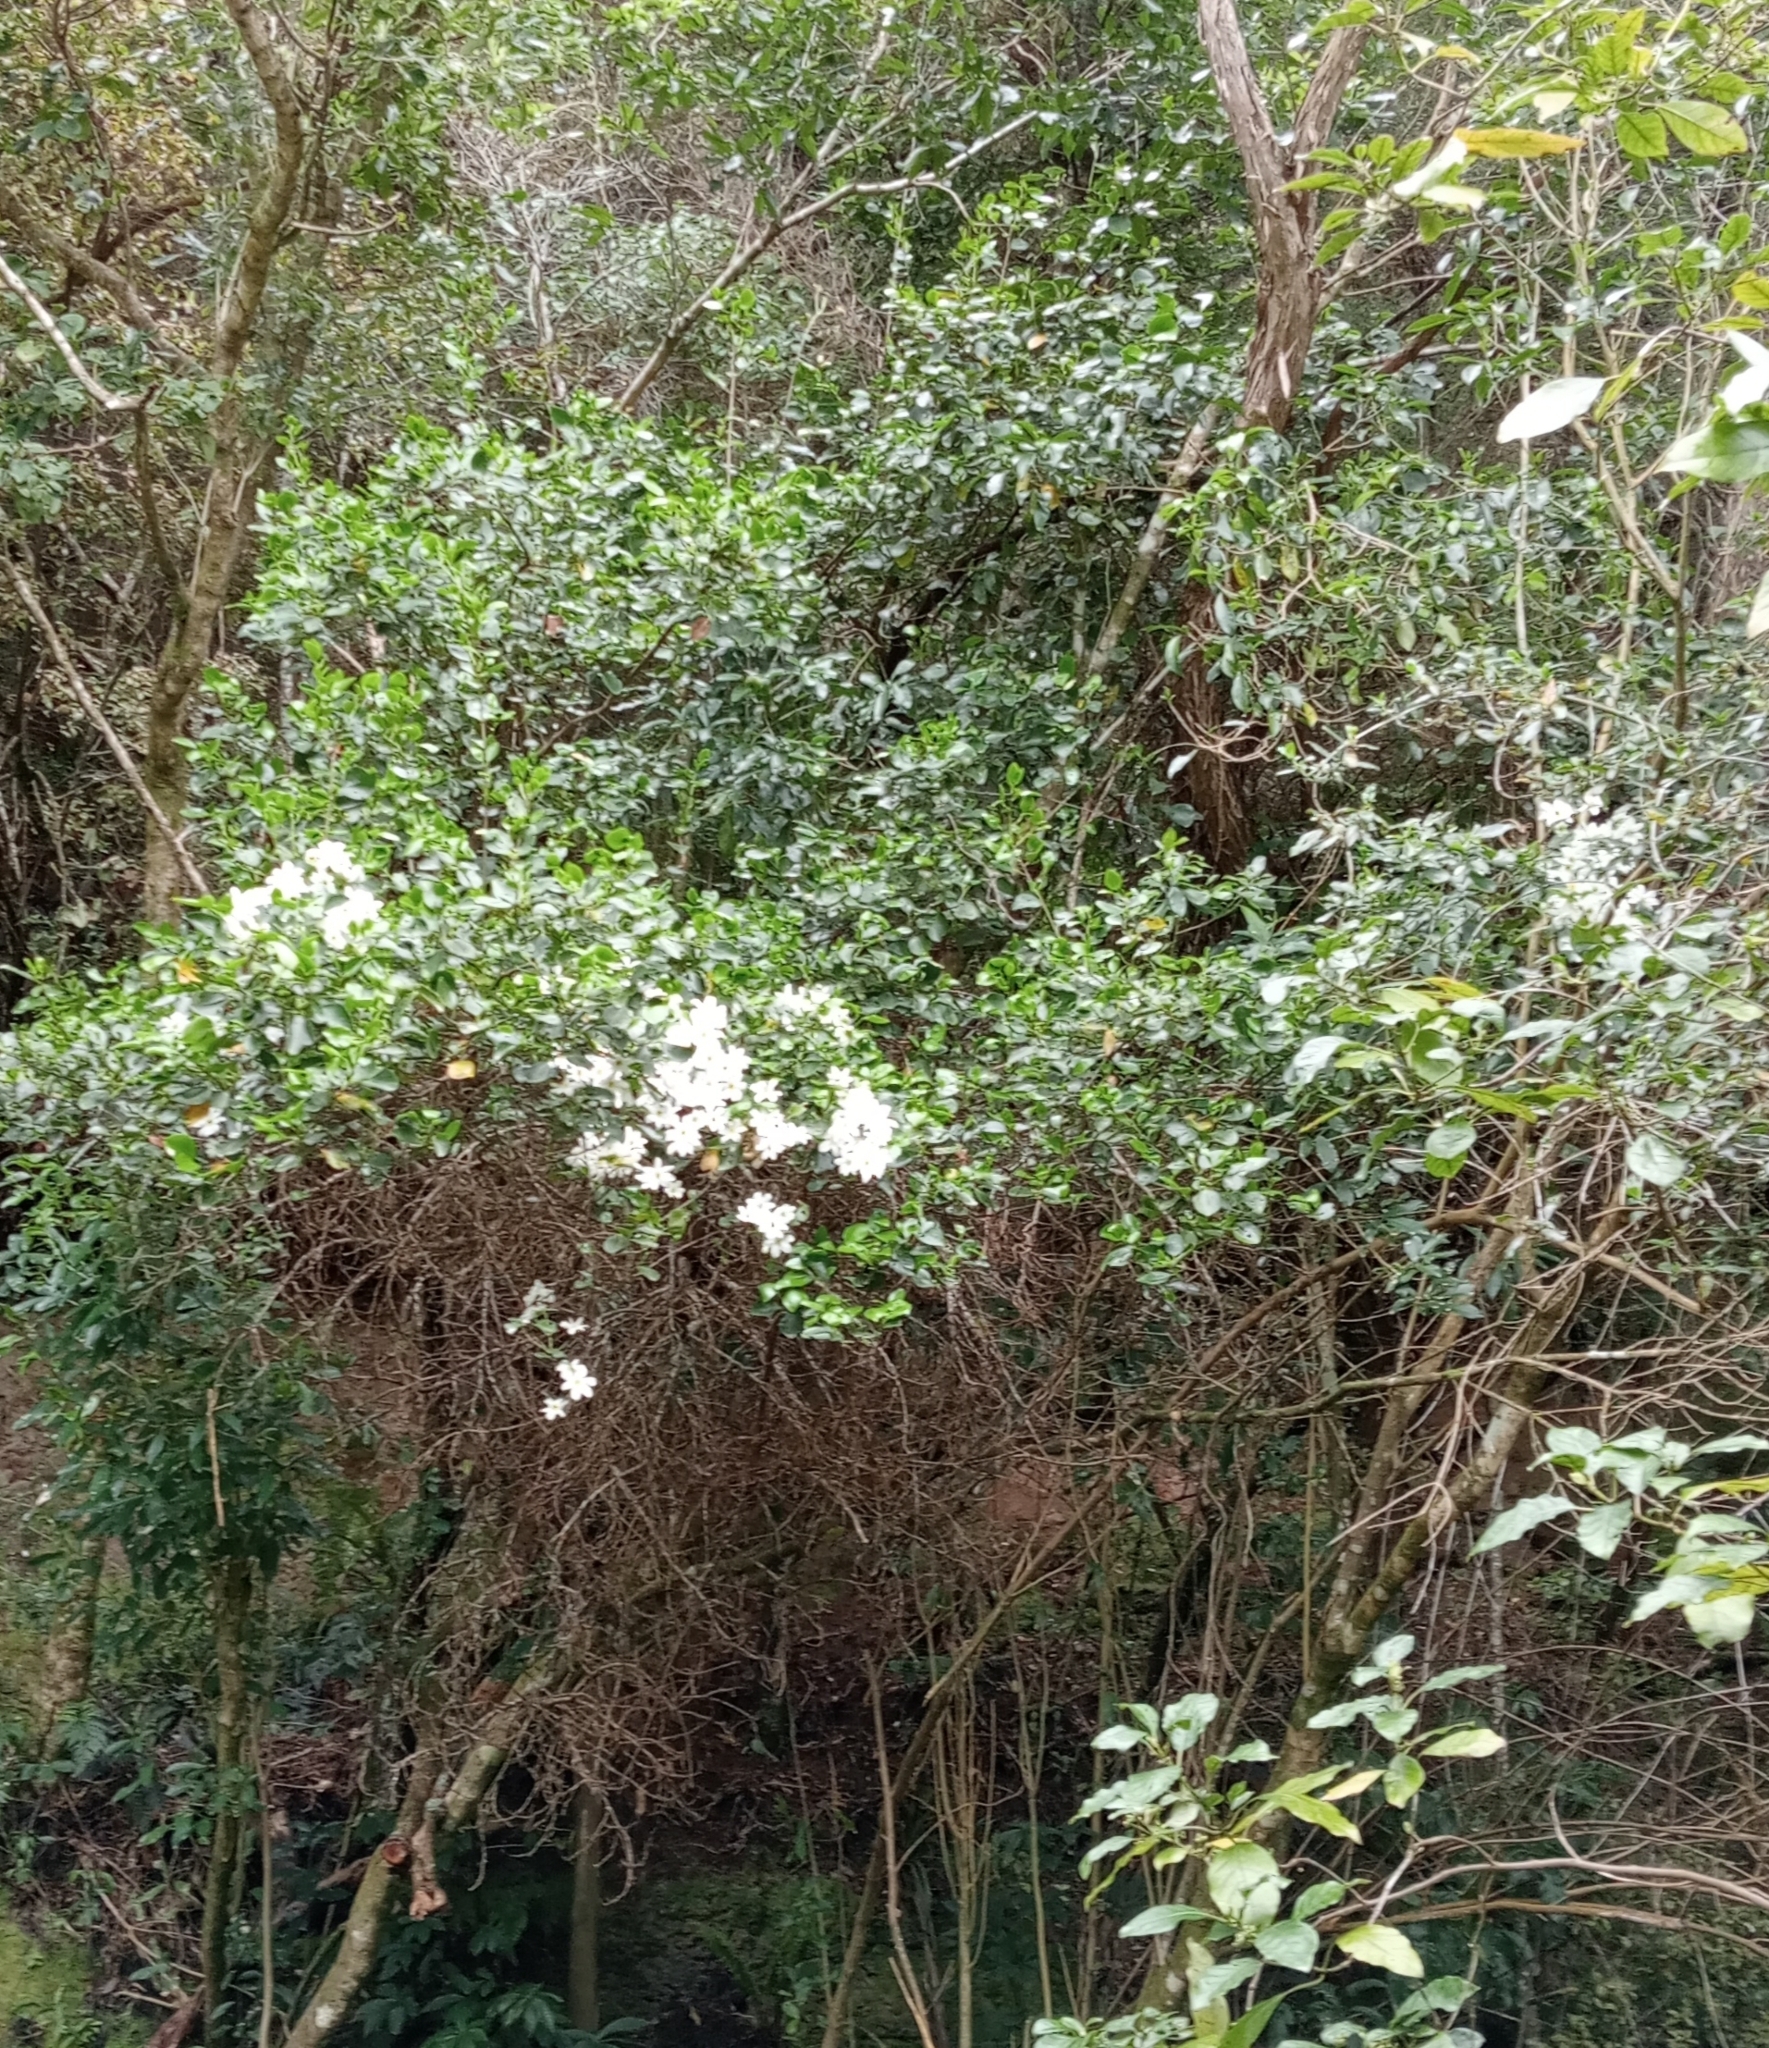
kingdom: Plantae
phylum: Tracheophyta
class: Magnoliopsida
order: Ranunculales
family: Ranunculaceae
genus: Clematis
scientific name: Clematis paniculata
